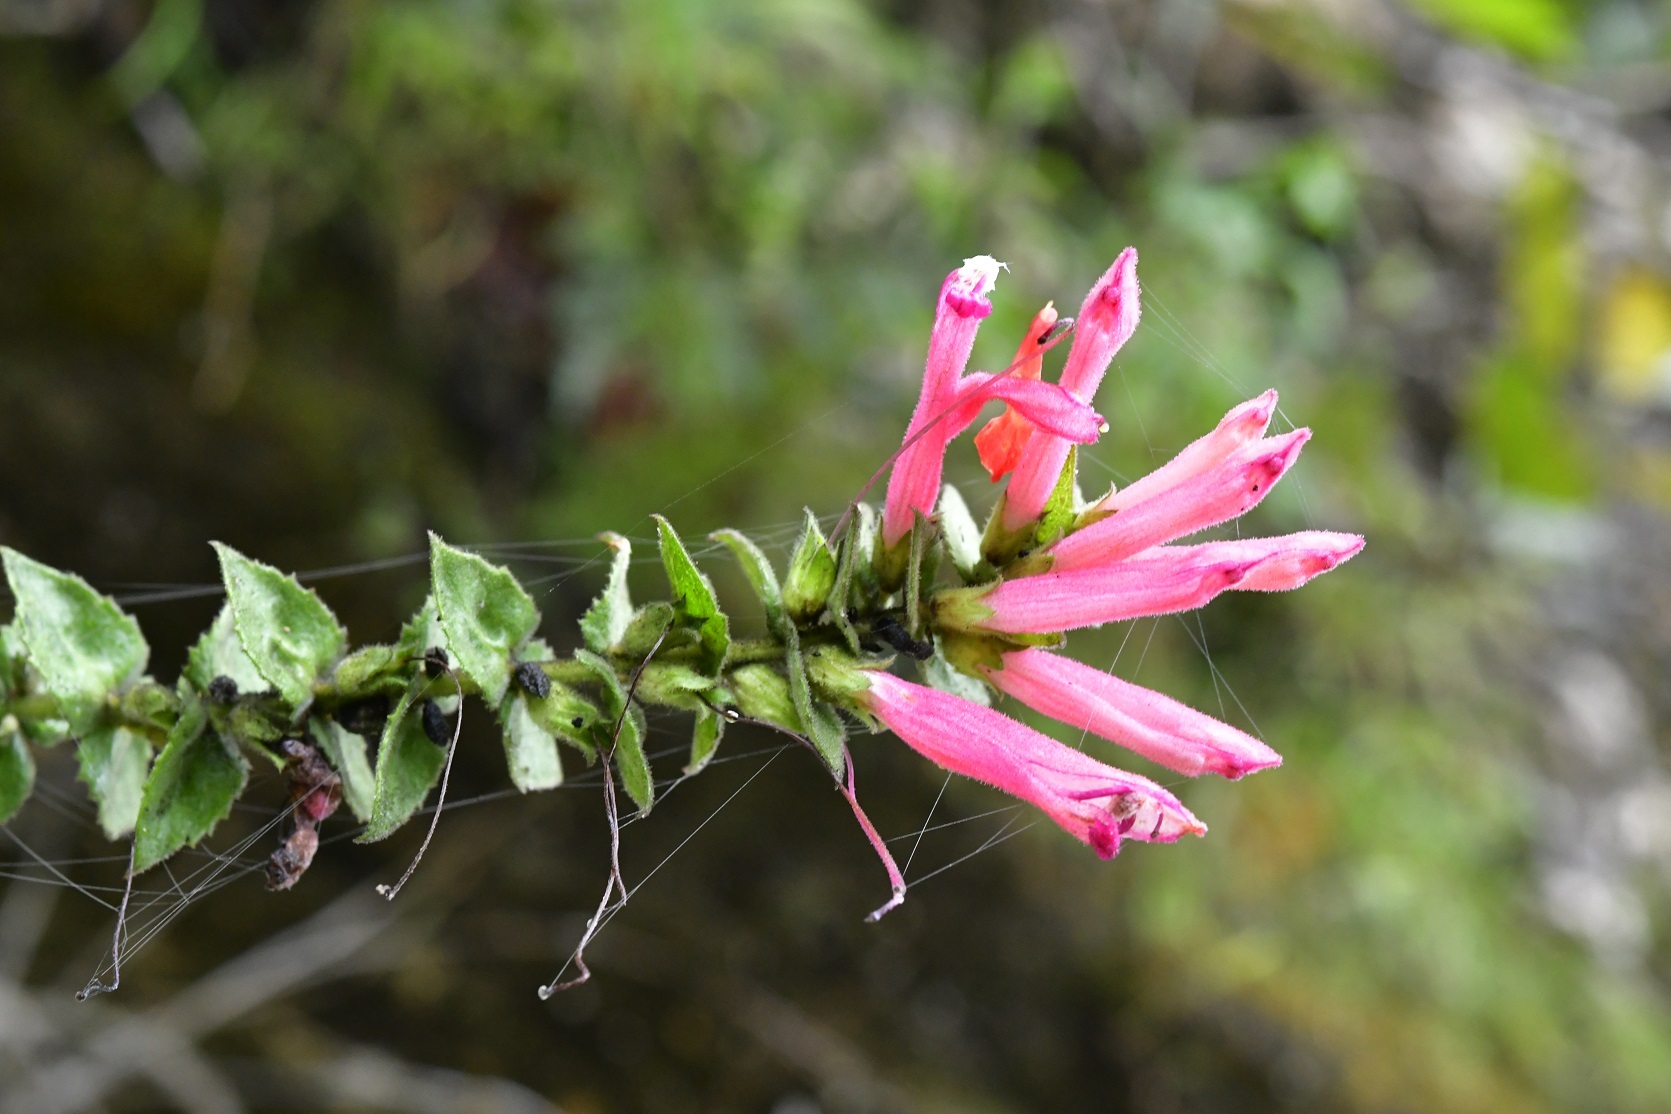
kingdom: Plantae
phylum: Tracheophyta
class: Magnoliopsida
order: Lamiales
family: Orobanchaceae
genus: Lamourouxia
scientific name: Lamourouxia viscosa
